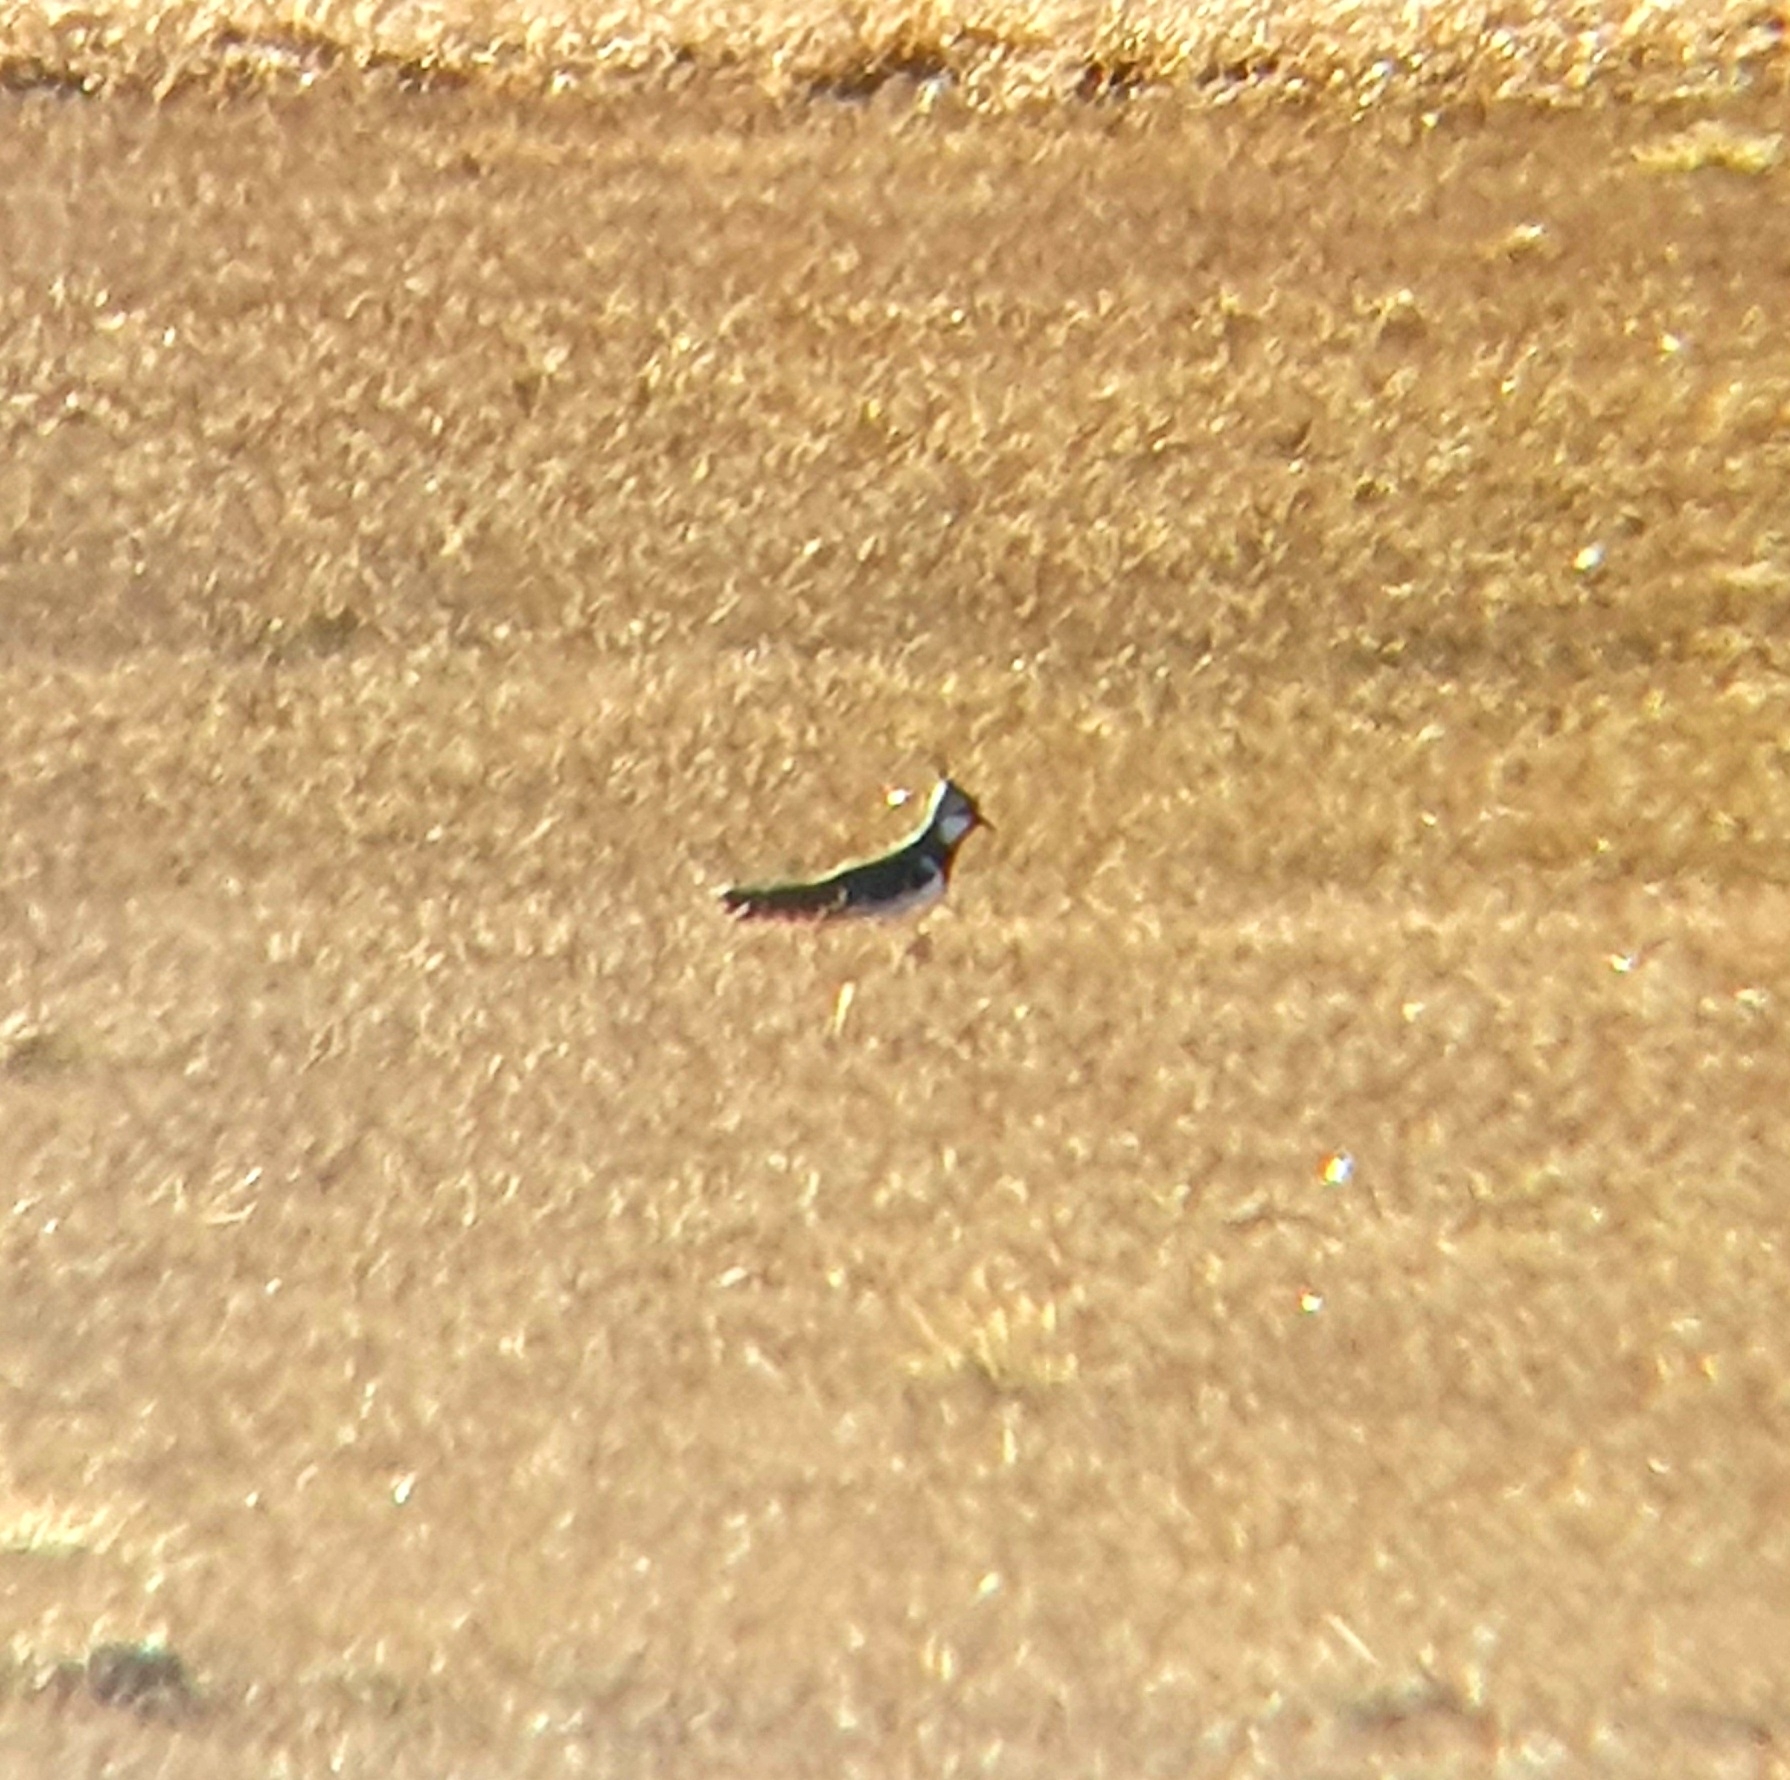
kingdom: Animalia
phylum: Chordata
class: Aves
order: Charadriiformes
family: Charadriidae
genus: Vanellus
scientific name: Vanellus vanellus
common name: Northern lapwing
